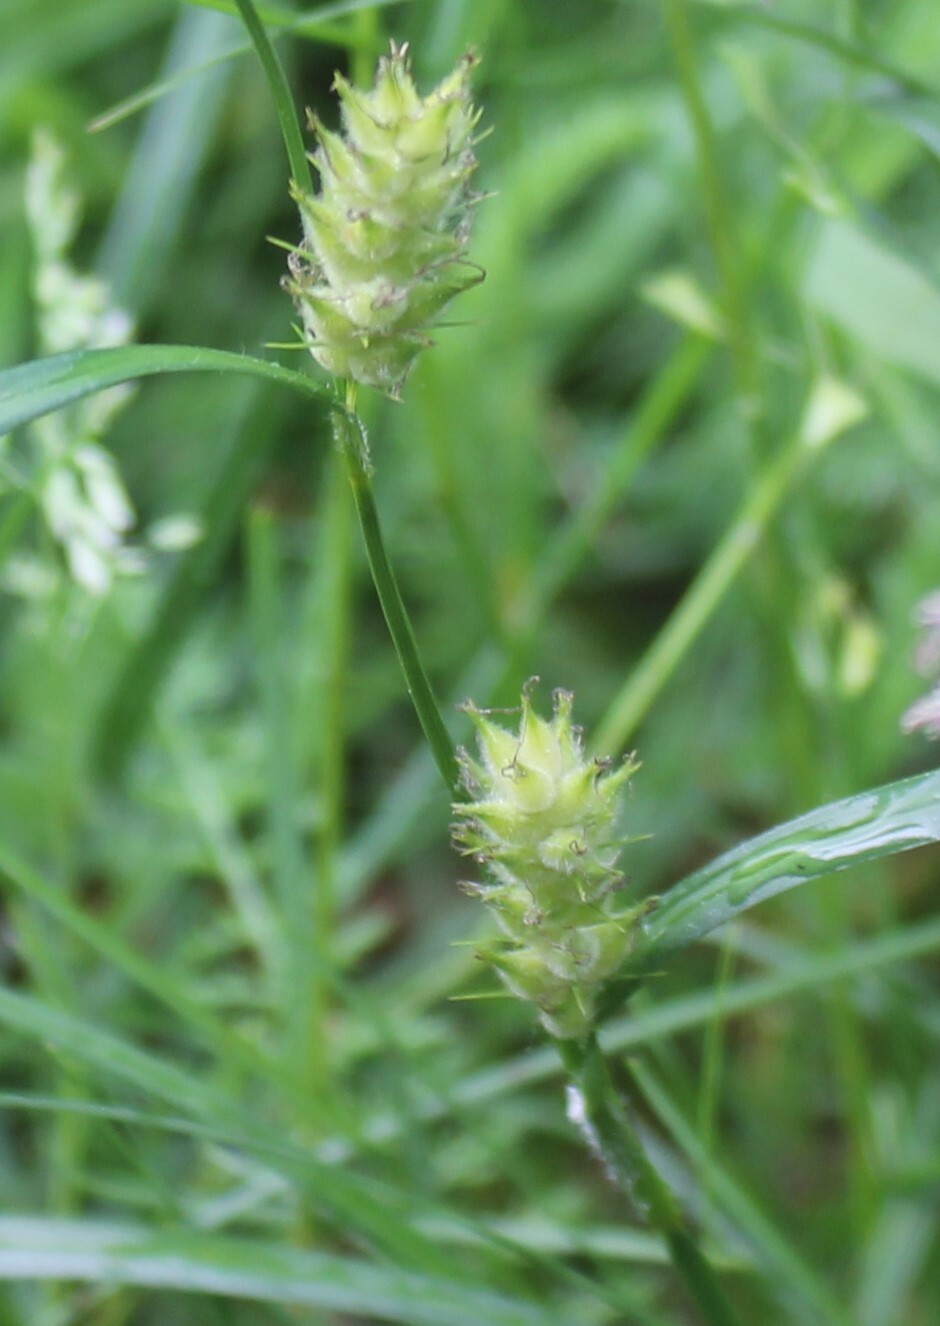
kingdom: Plantae
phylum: Tracheophyta
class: Liliopsida
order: Poales
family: Cyperaceae
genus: Carex
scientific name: Carex hirta
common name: Hairy sedge
